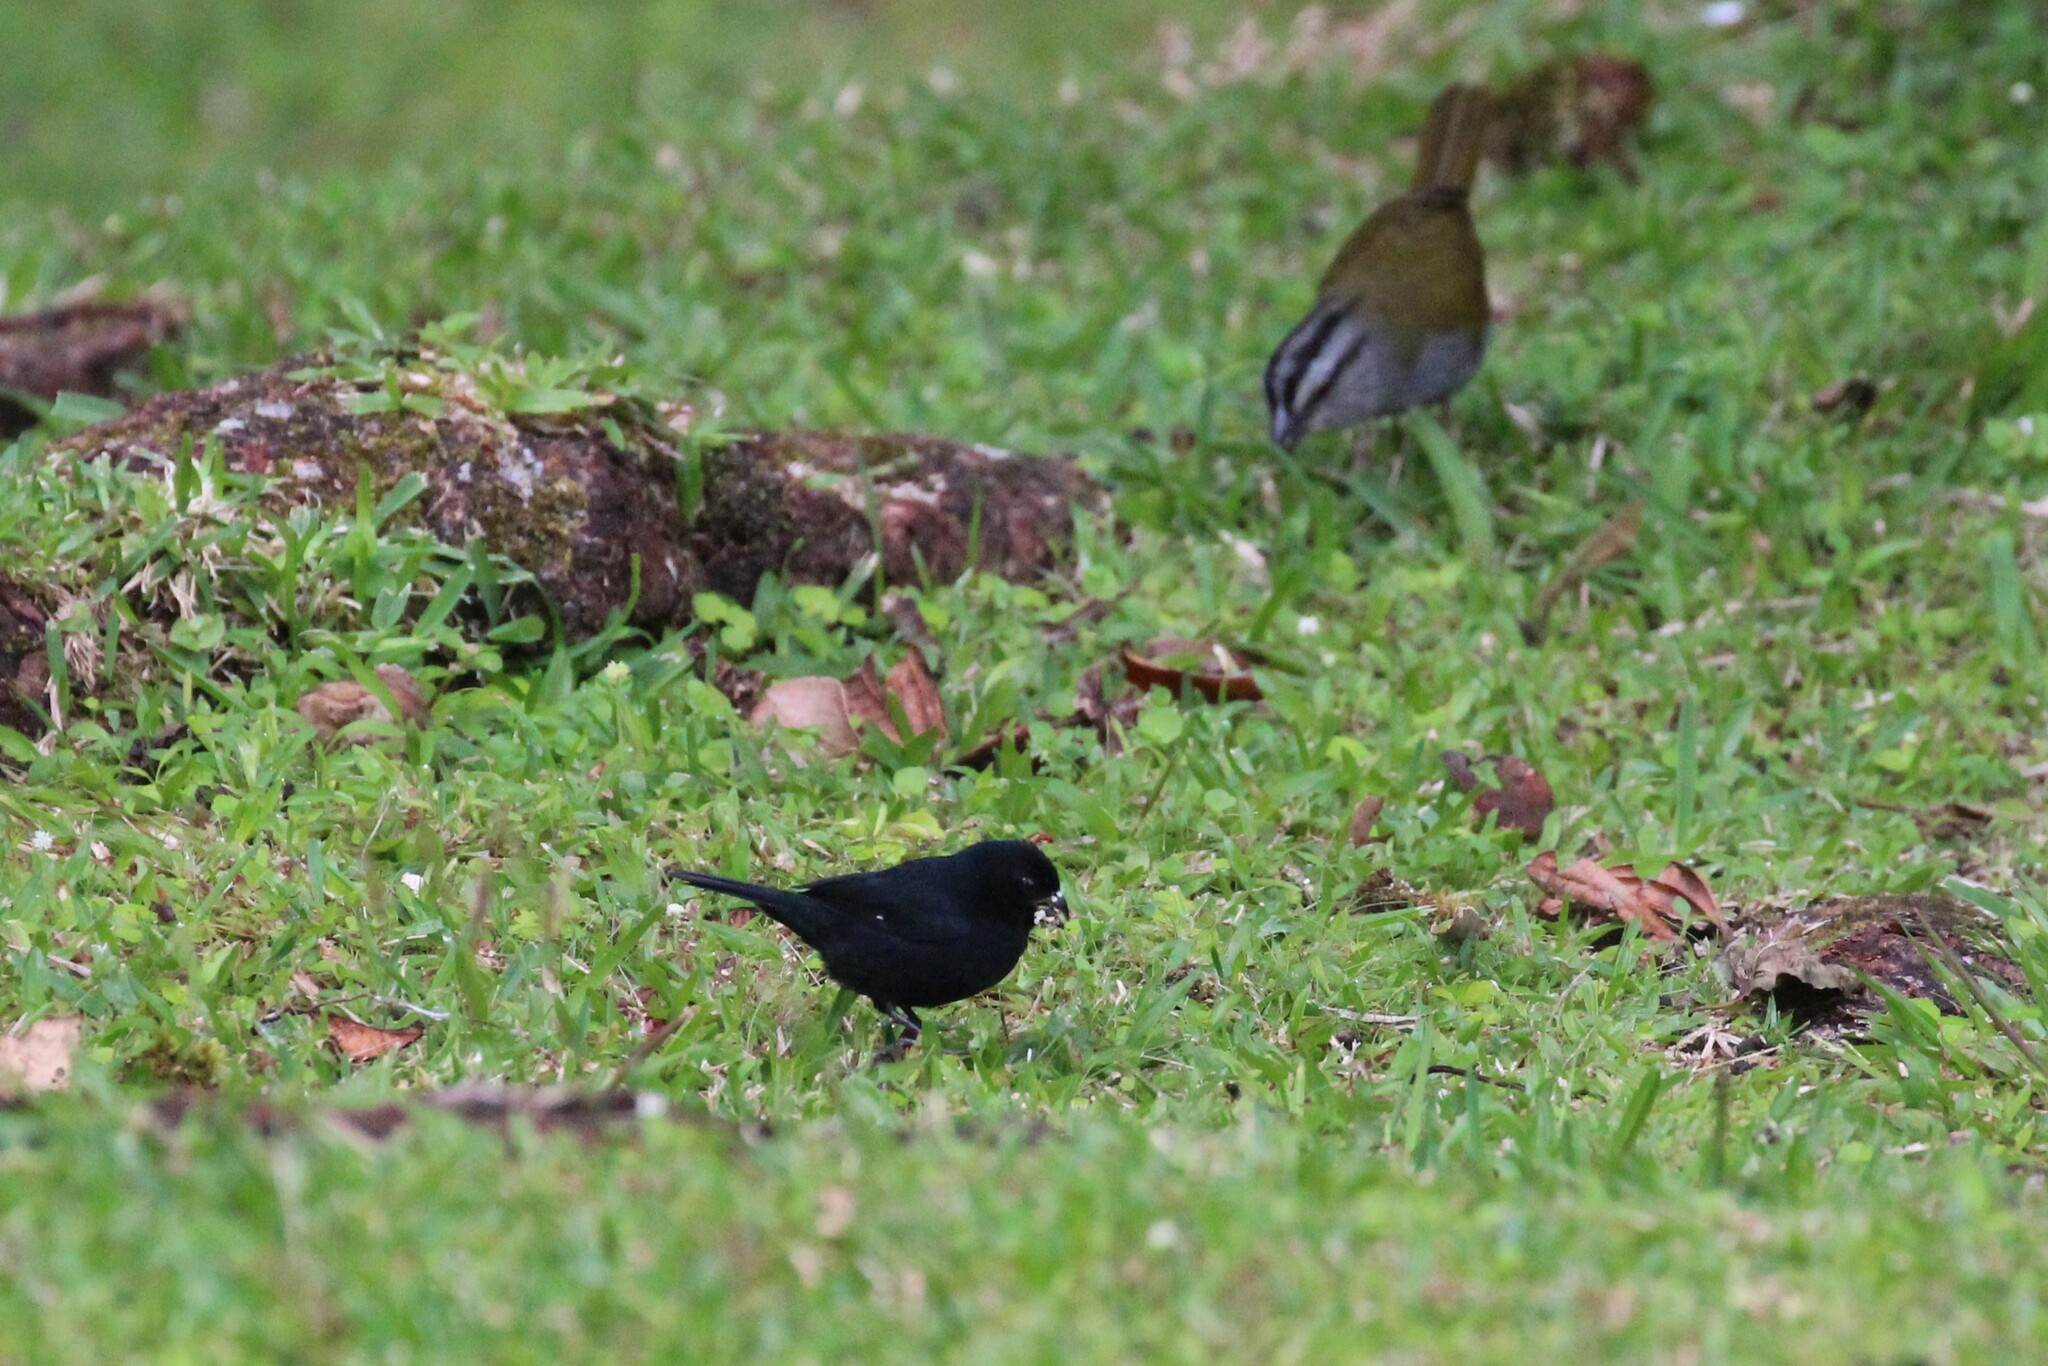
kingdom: Animalia
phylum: Chordata
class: Aves
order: Passeriformes
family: Passerellidae
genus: Arremonops
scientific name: Arremonops conirostris
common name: Black-striped sparrow
